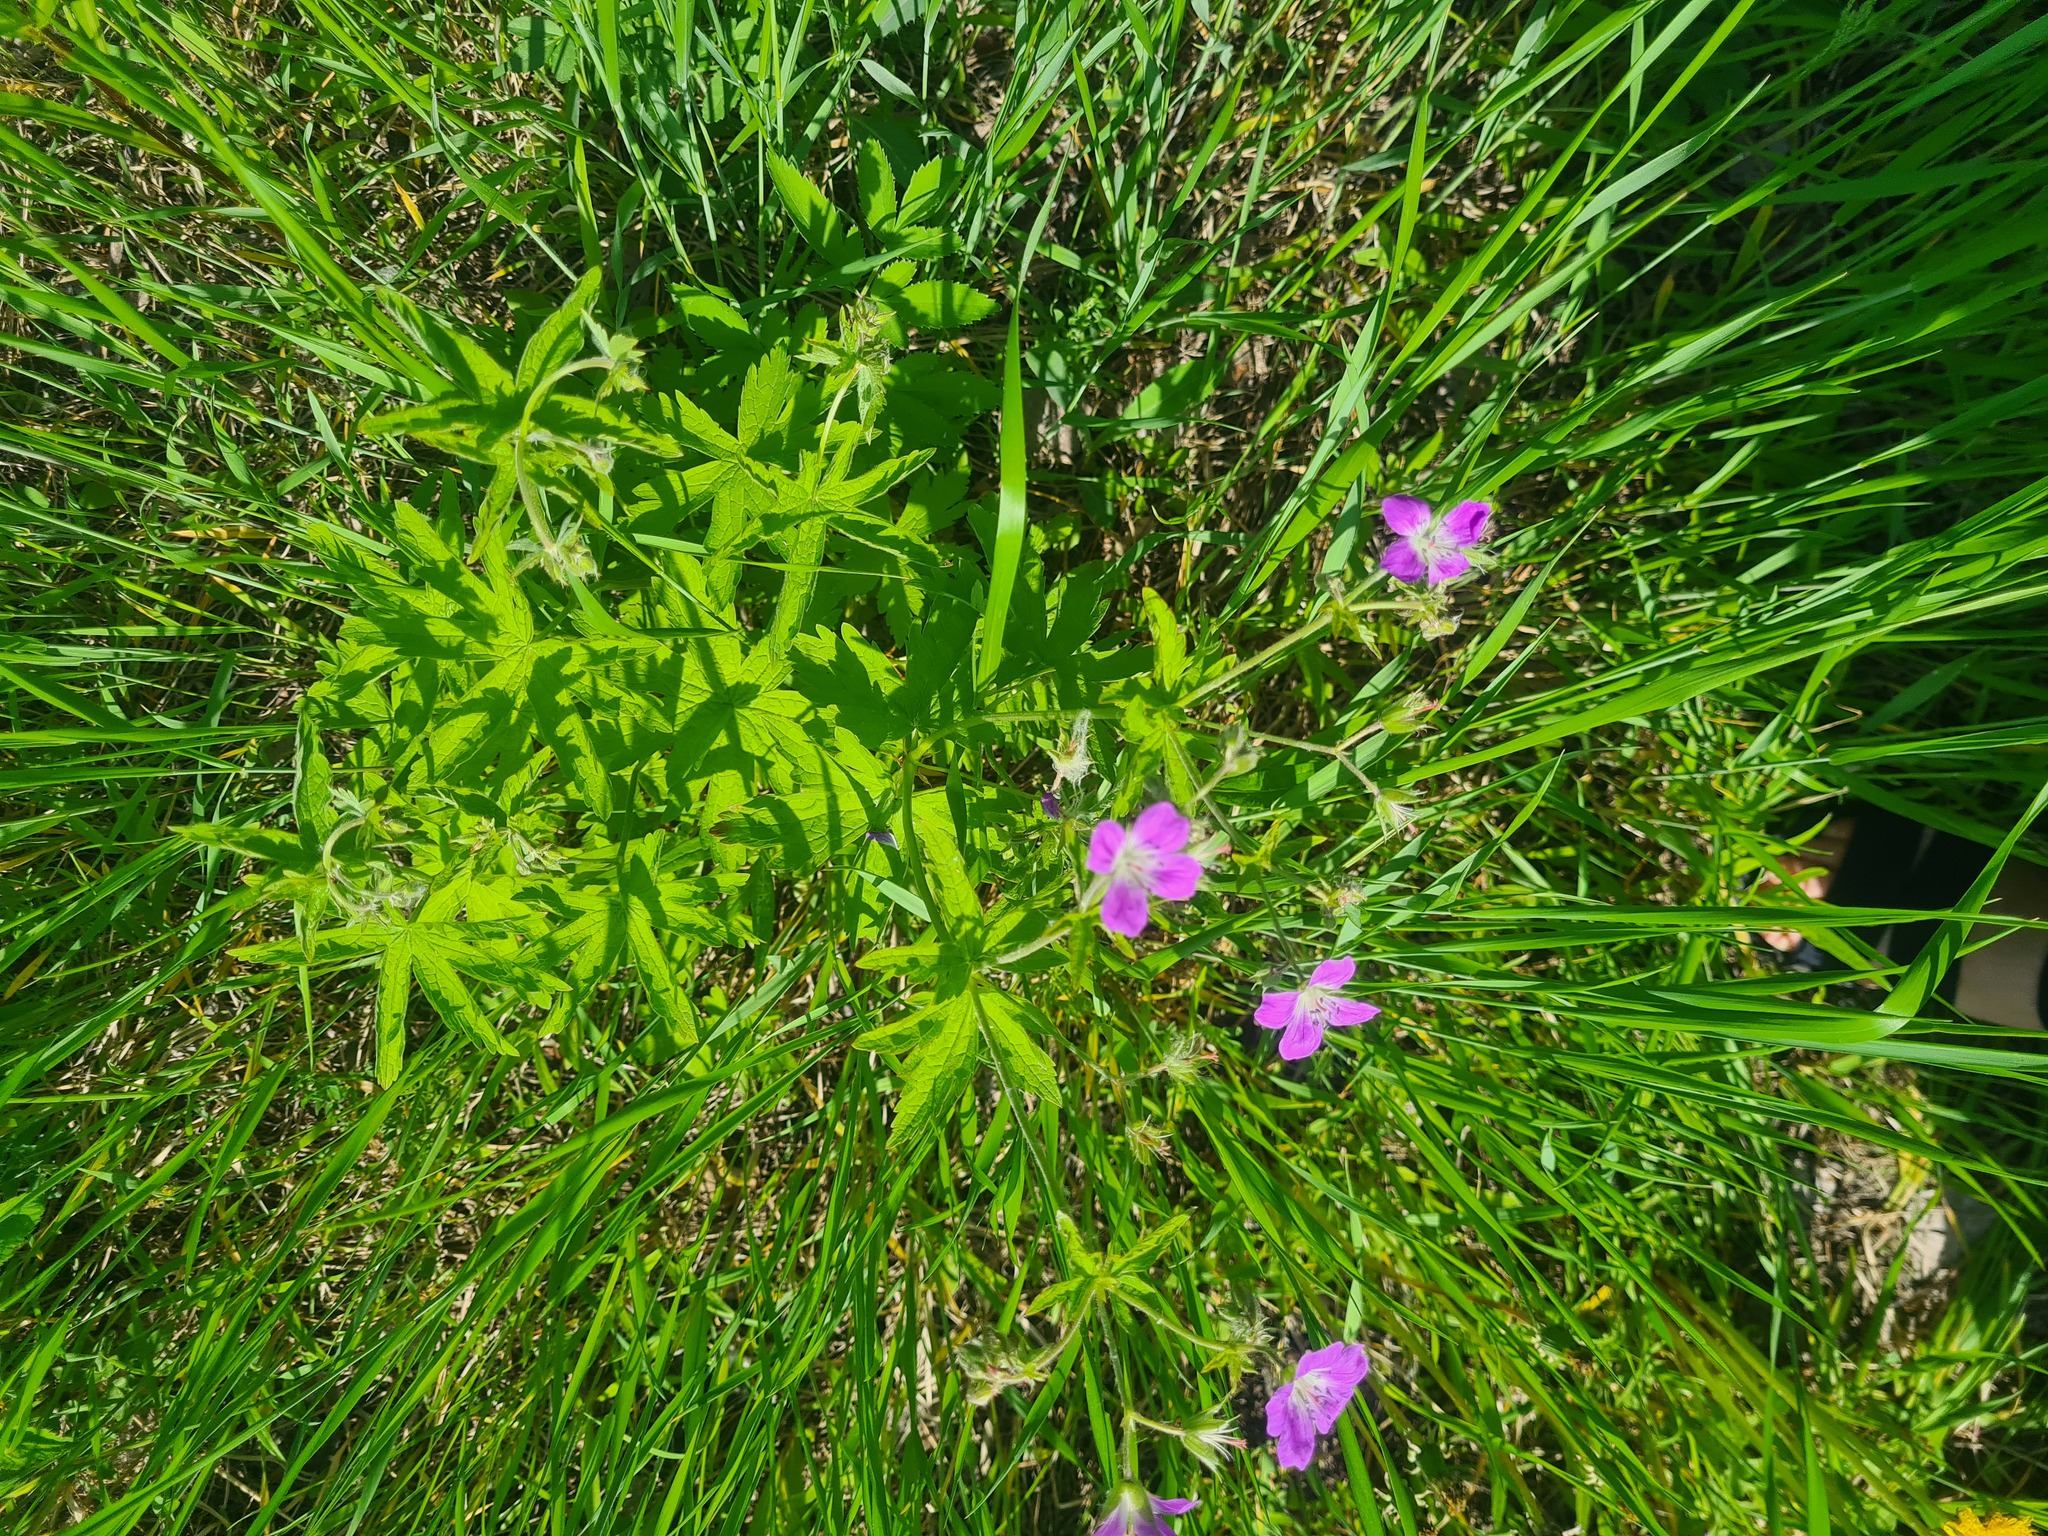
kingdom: Plantae
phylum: Tracheophyta
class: Magnoliopsida
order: Geraniales
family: Geraniaceae
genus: Geranium
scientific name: Geranium sylvaticum
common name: Wood crane's-bill
